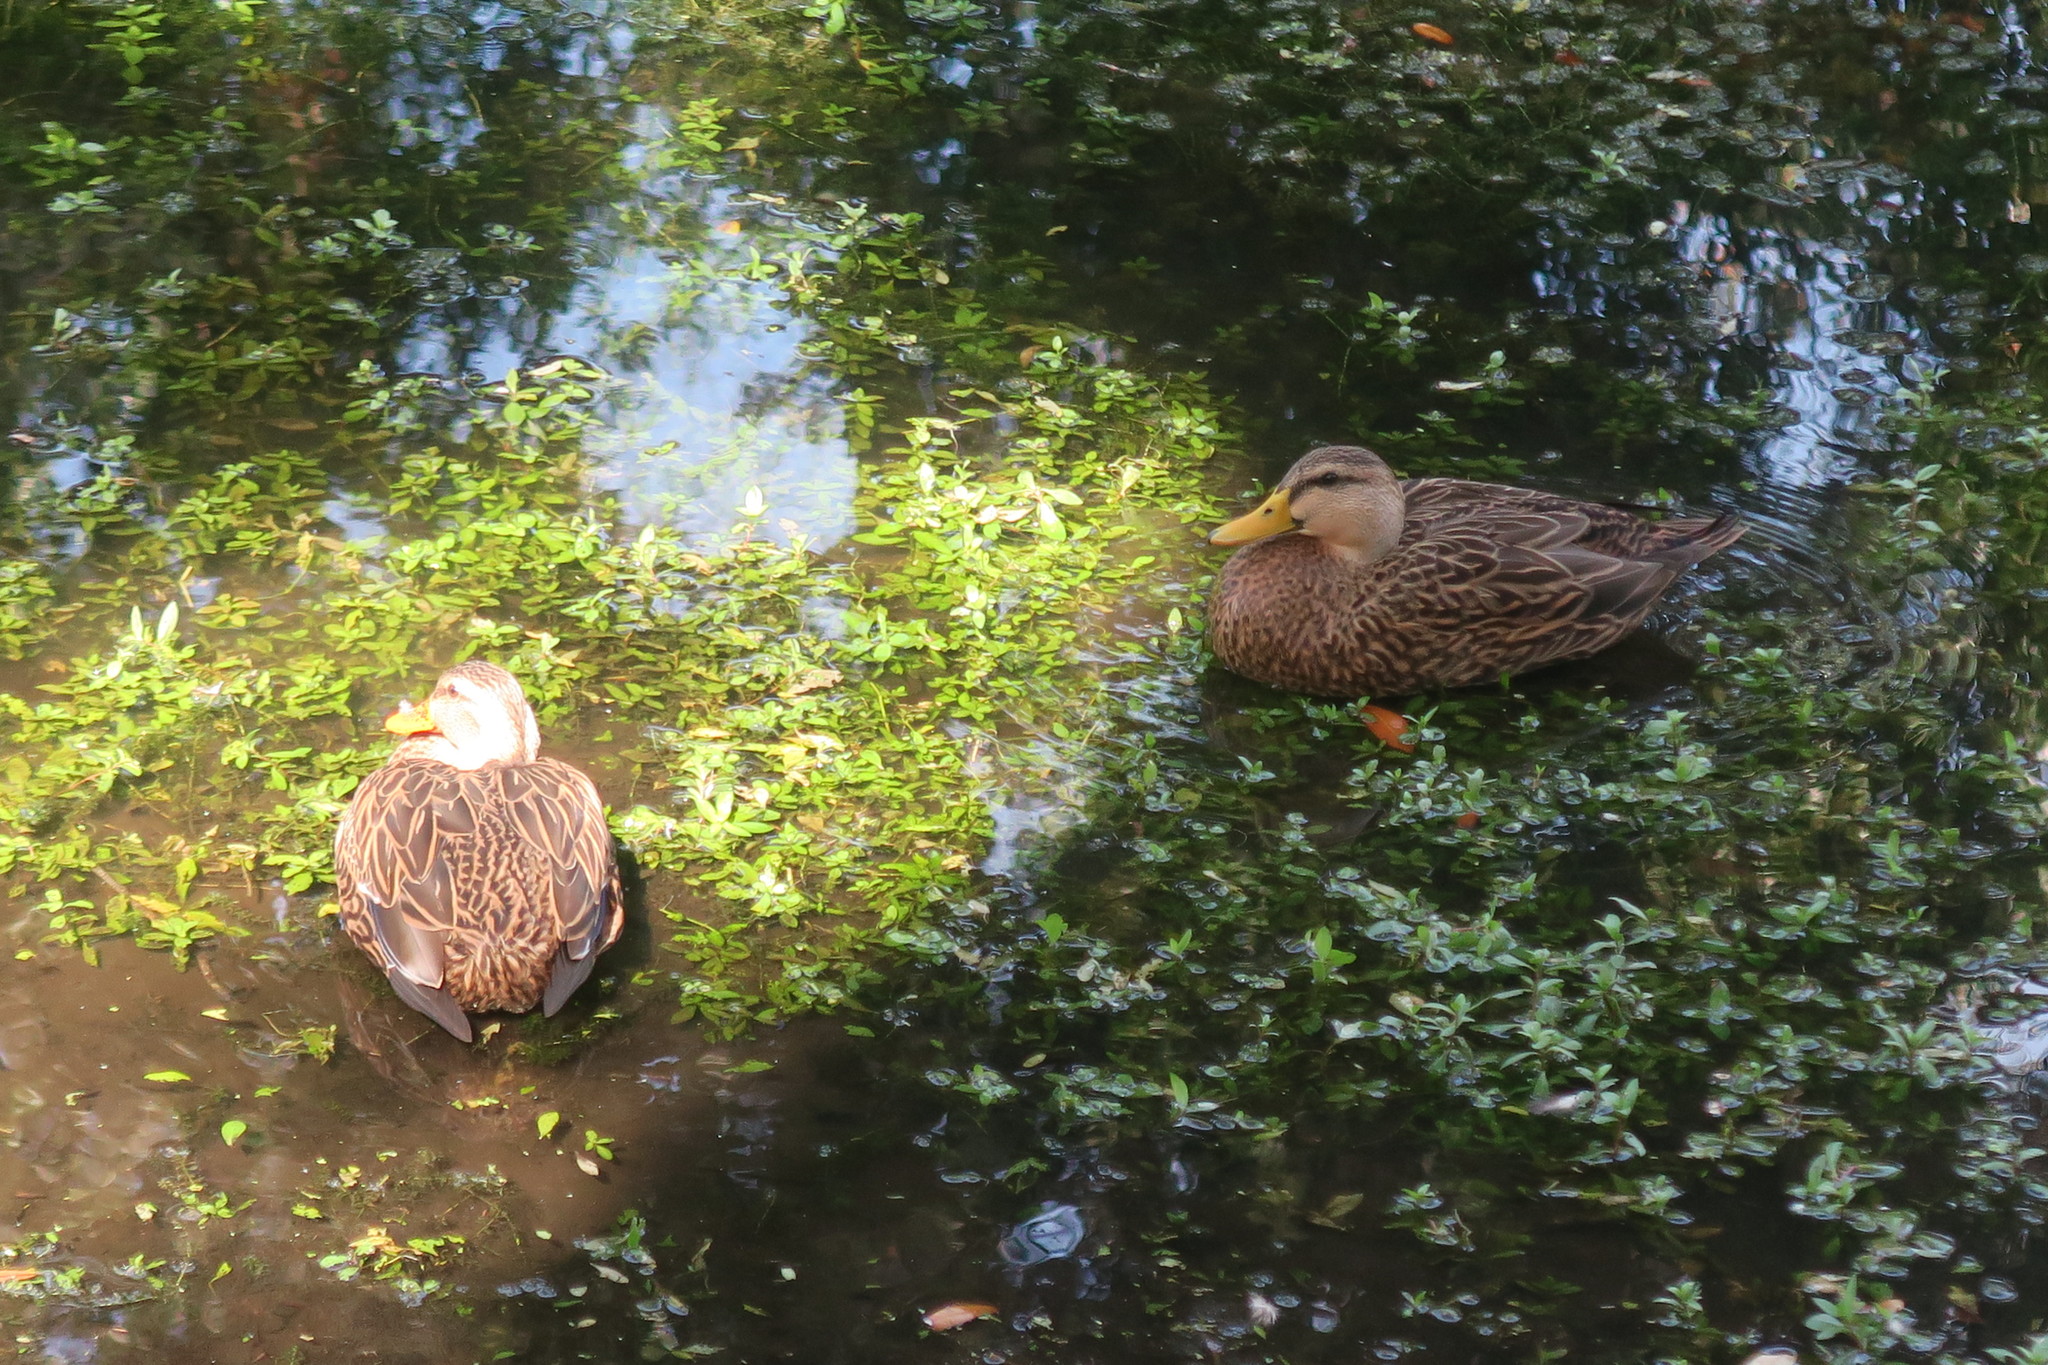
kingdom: Animalia
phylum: Chordata
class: Aves
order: Anseriformes
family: Anatidae
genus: Anas
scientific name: Anas fulvigula
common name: Mottled duck
